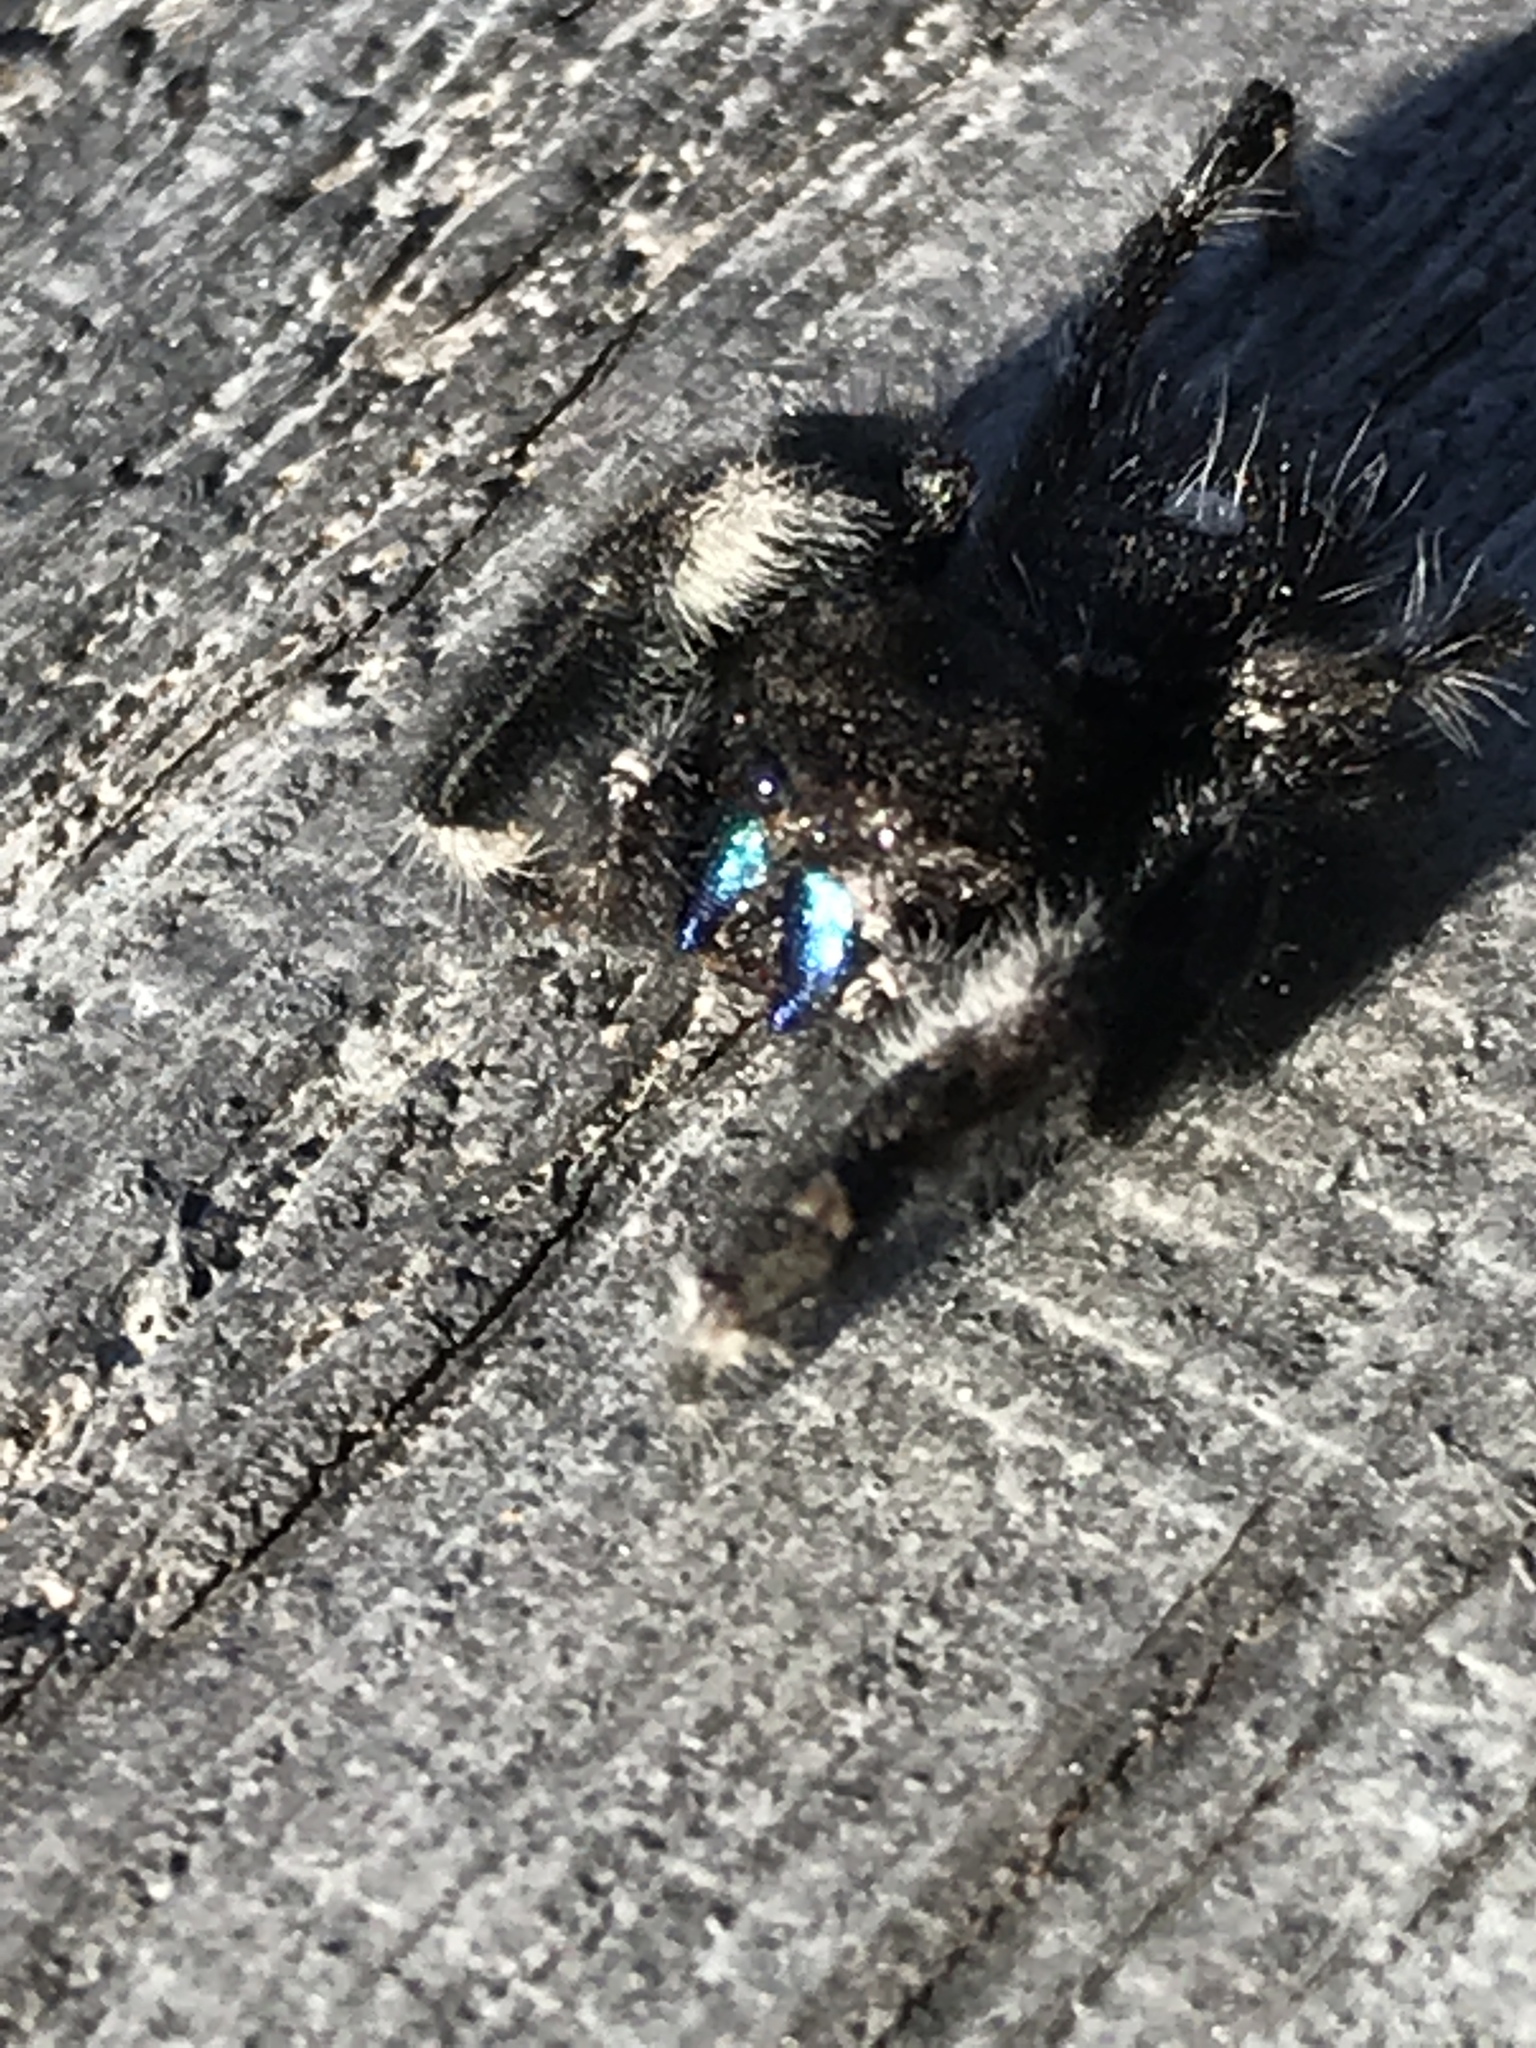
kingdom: Animalia
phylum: Arthropoda
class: Arachnida
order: Araneae
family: Salticidae
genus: Phidippus
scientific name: Phidippus audax
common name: Bold jumper
